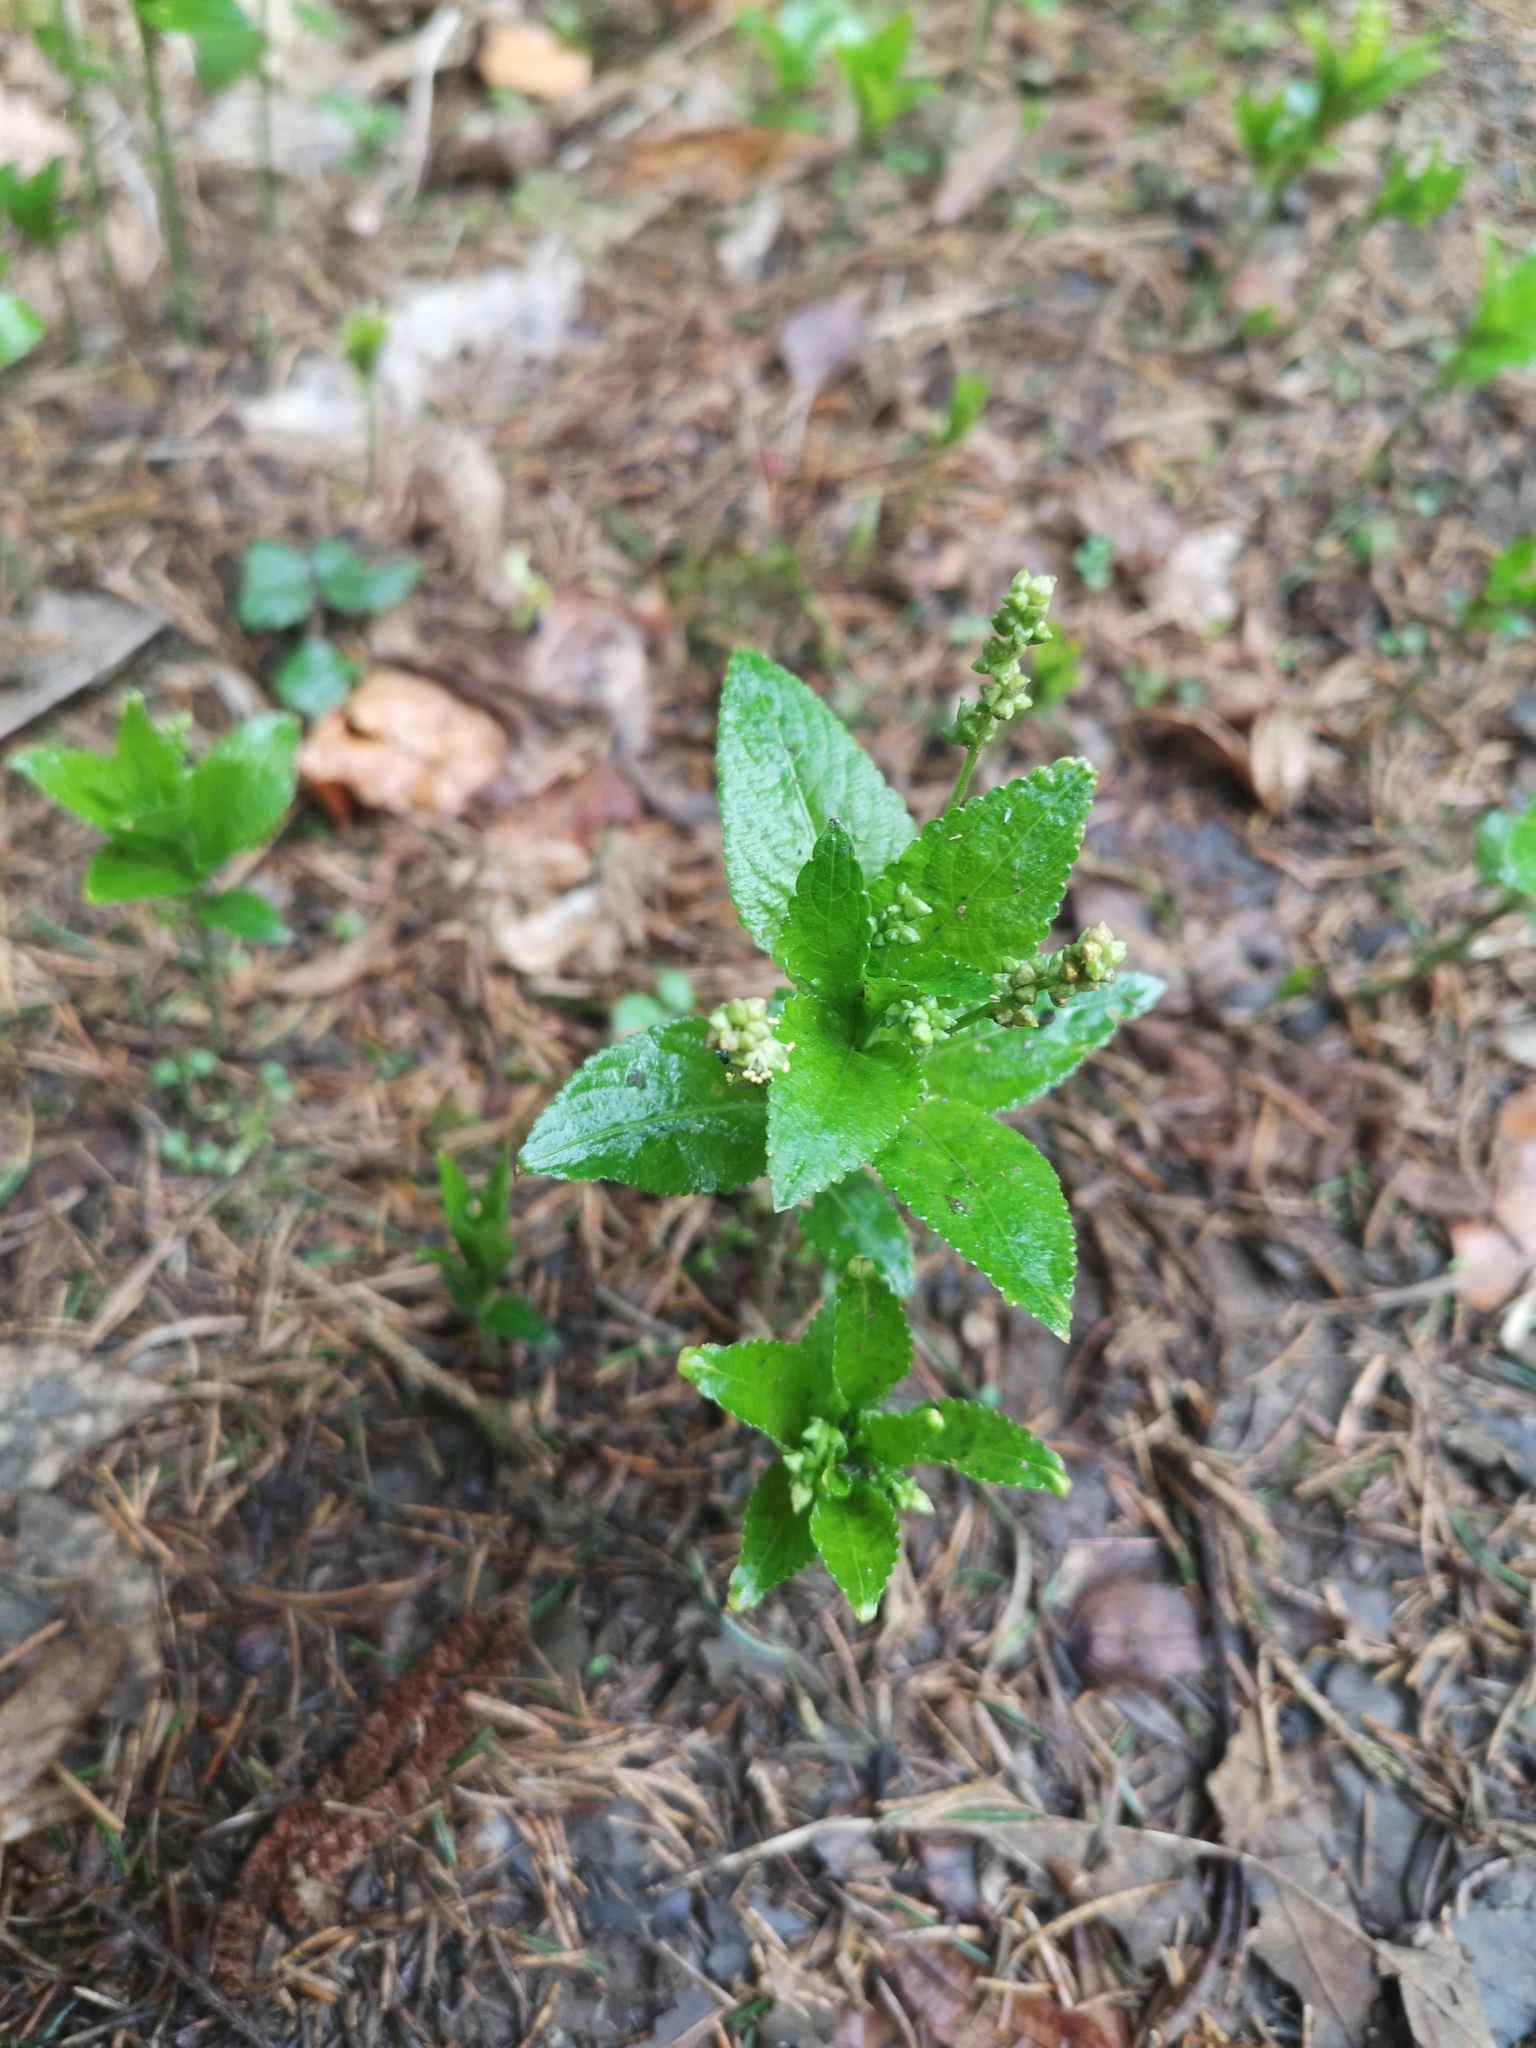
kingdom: Plantae
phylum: Tracheophyta
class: Magnoliopsida
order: Malpighiales
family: Euphorbiaceae
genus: Mercurialis
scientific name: Mercurialis perennis
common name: Dog mercury
